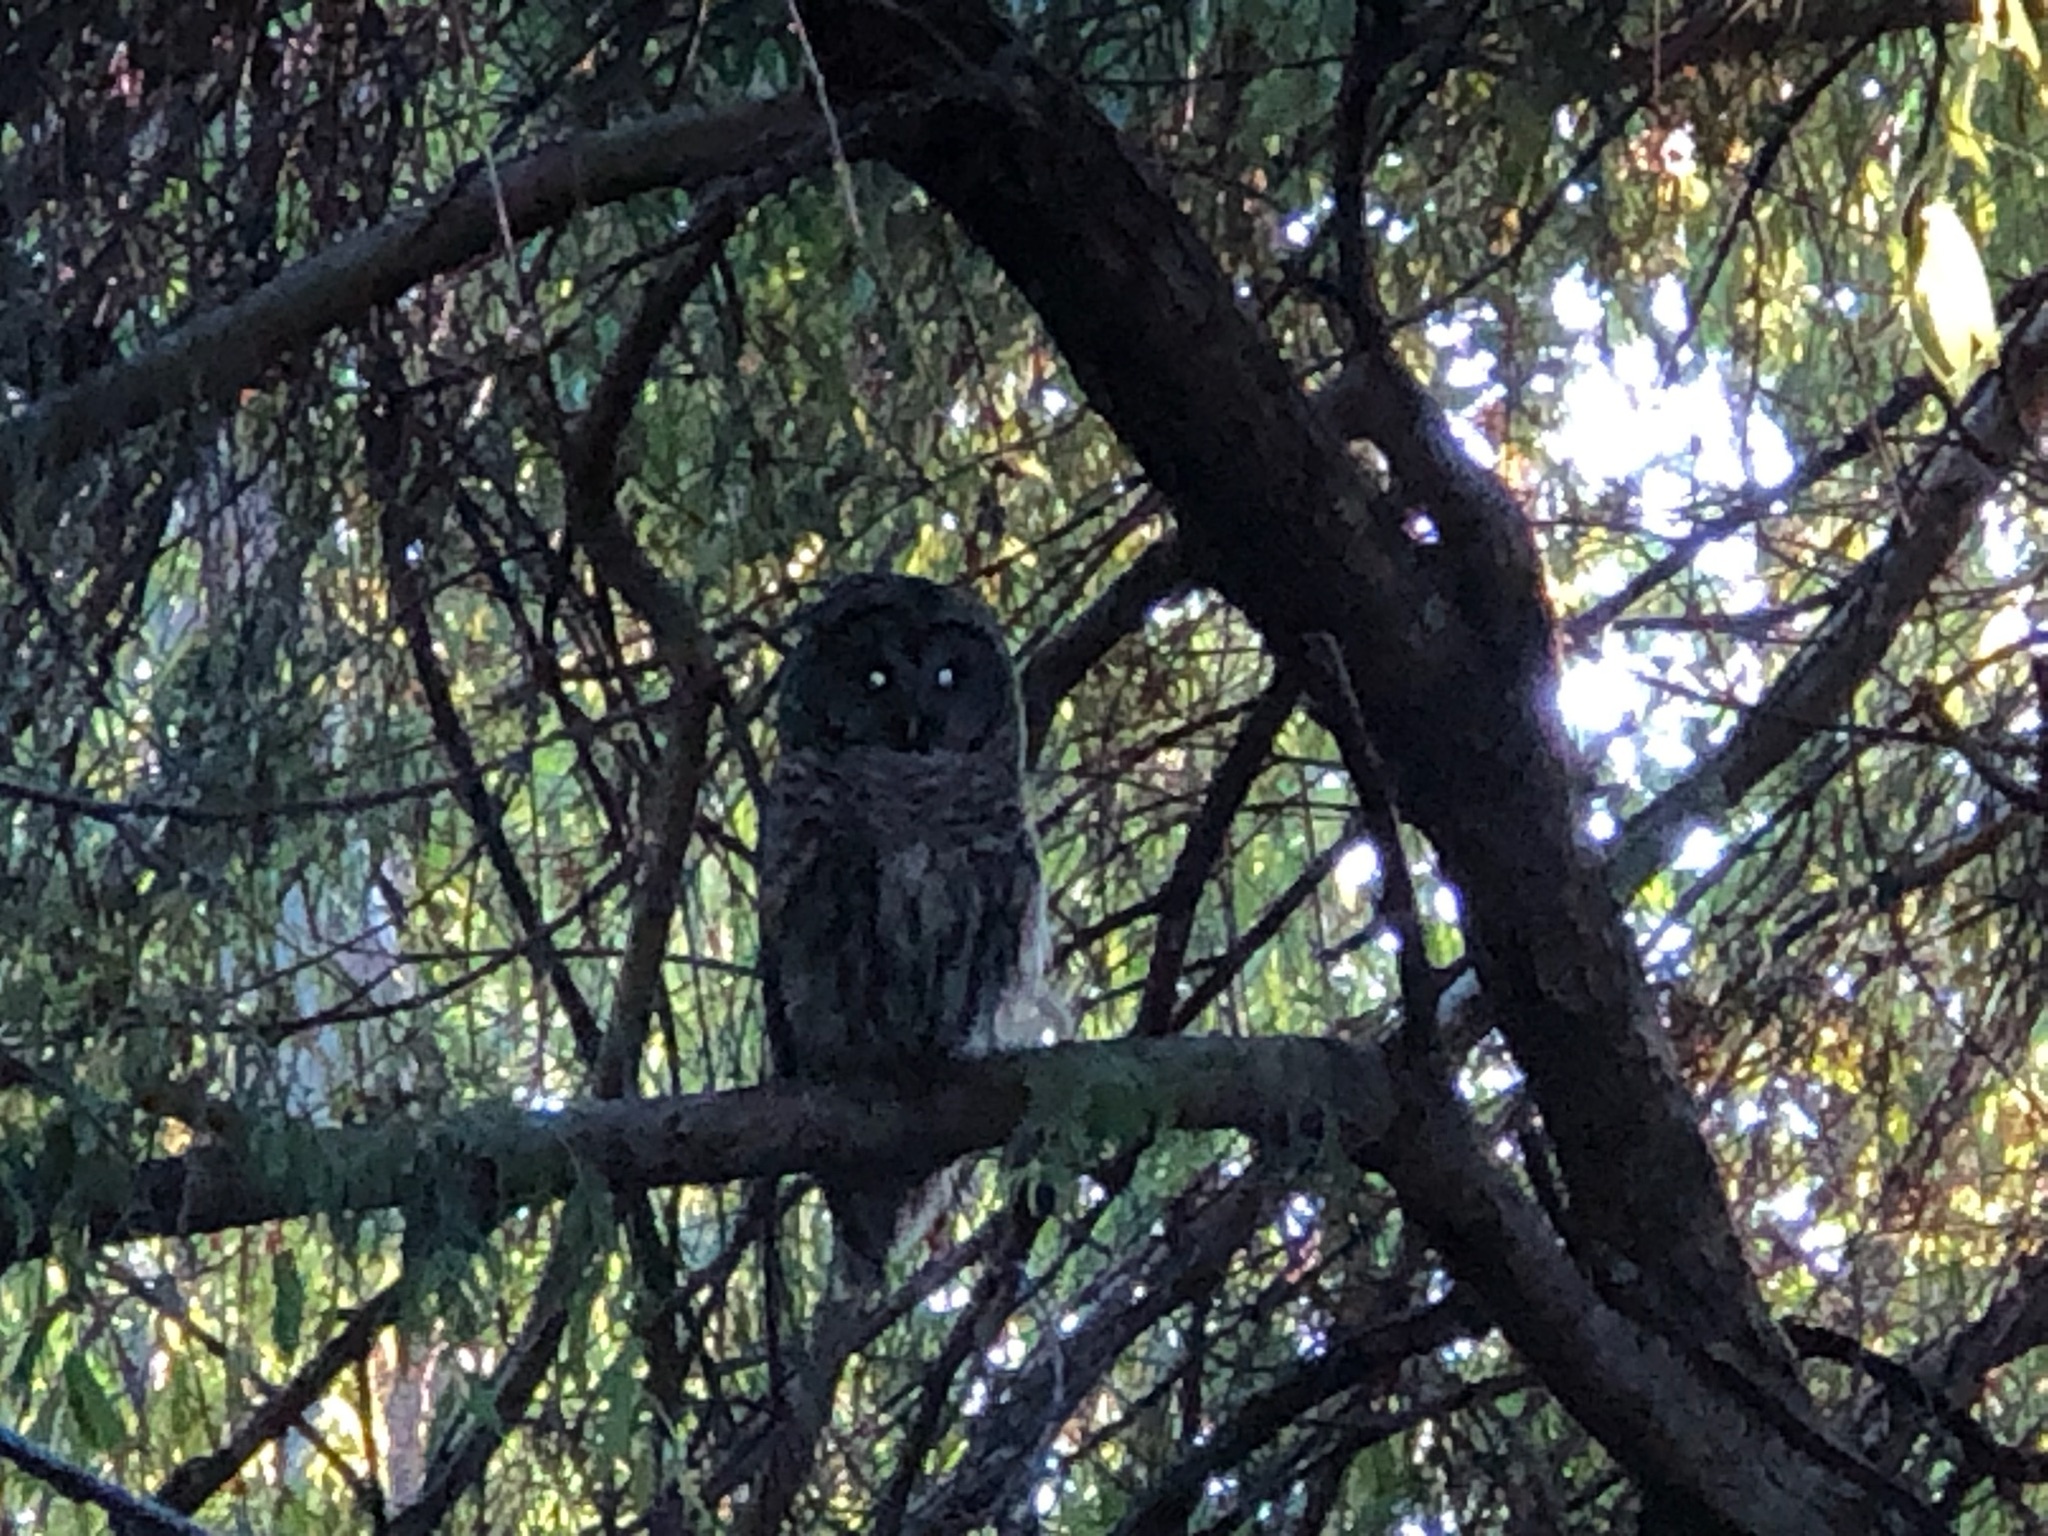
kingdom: Animalia
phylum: Chordata
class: Aves
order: Strigiformes
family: Strigidae
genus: Strix
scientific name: Strix varia
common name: Barred owl
